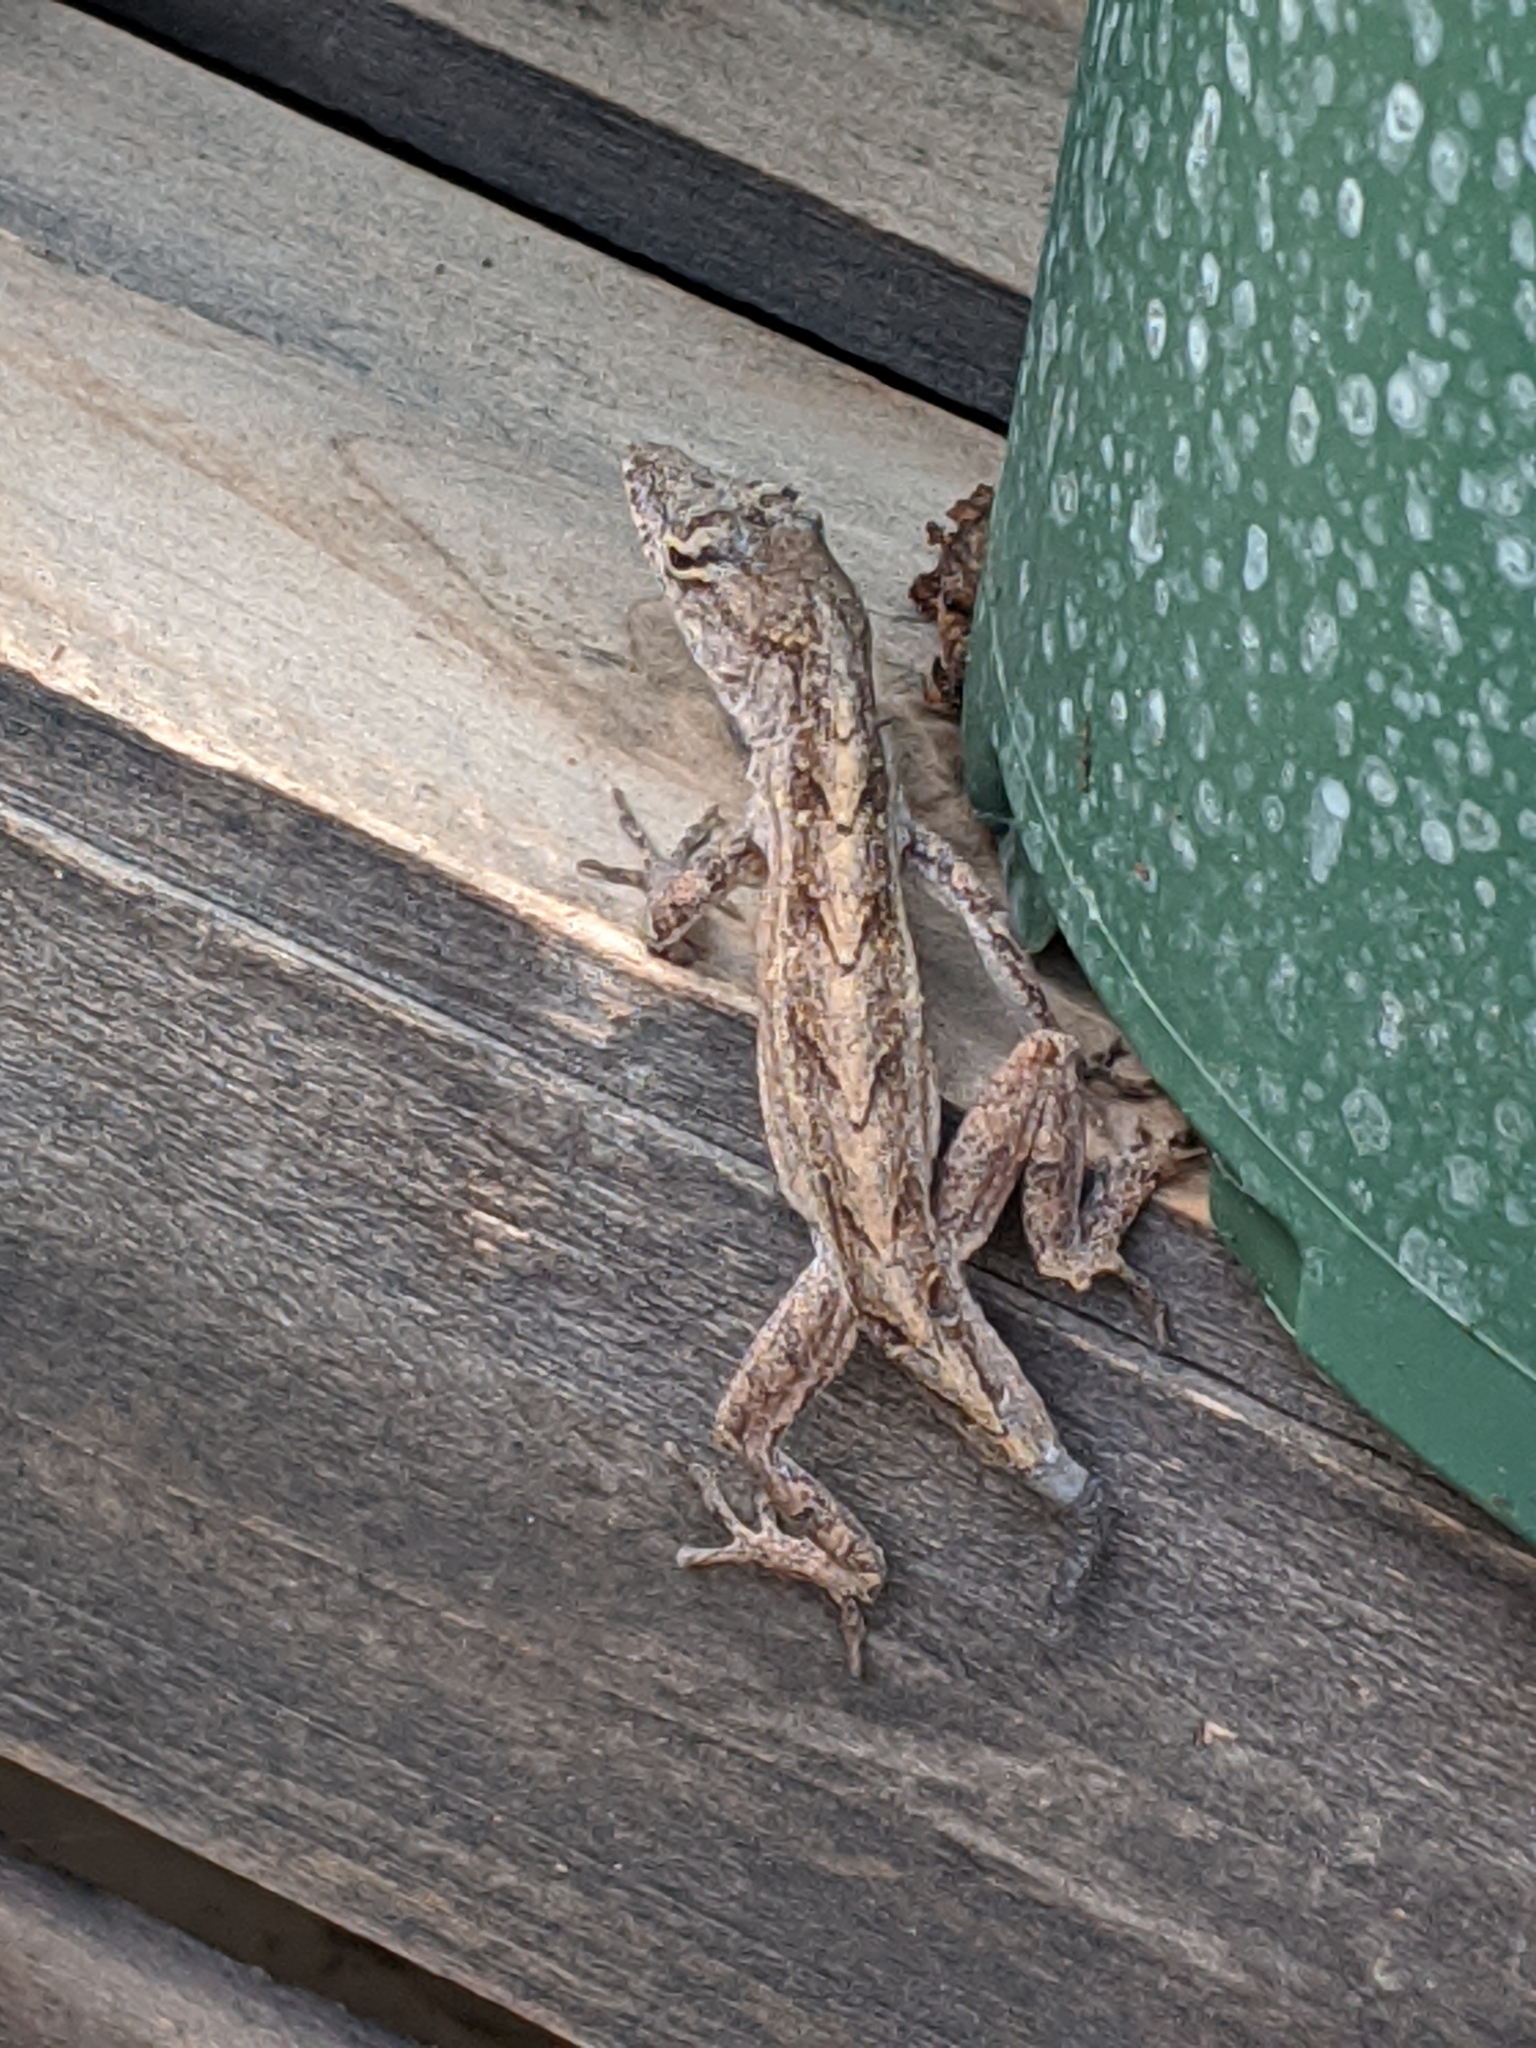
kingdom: Animalia
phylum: Chordata
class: Squamata
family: Dactyloidae
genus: Anolis
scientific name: Anolis sagrei
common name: Brown anole
